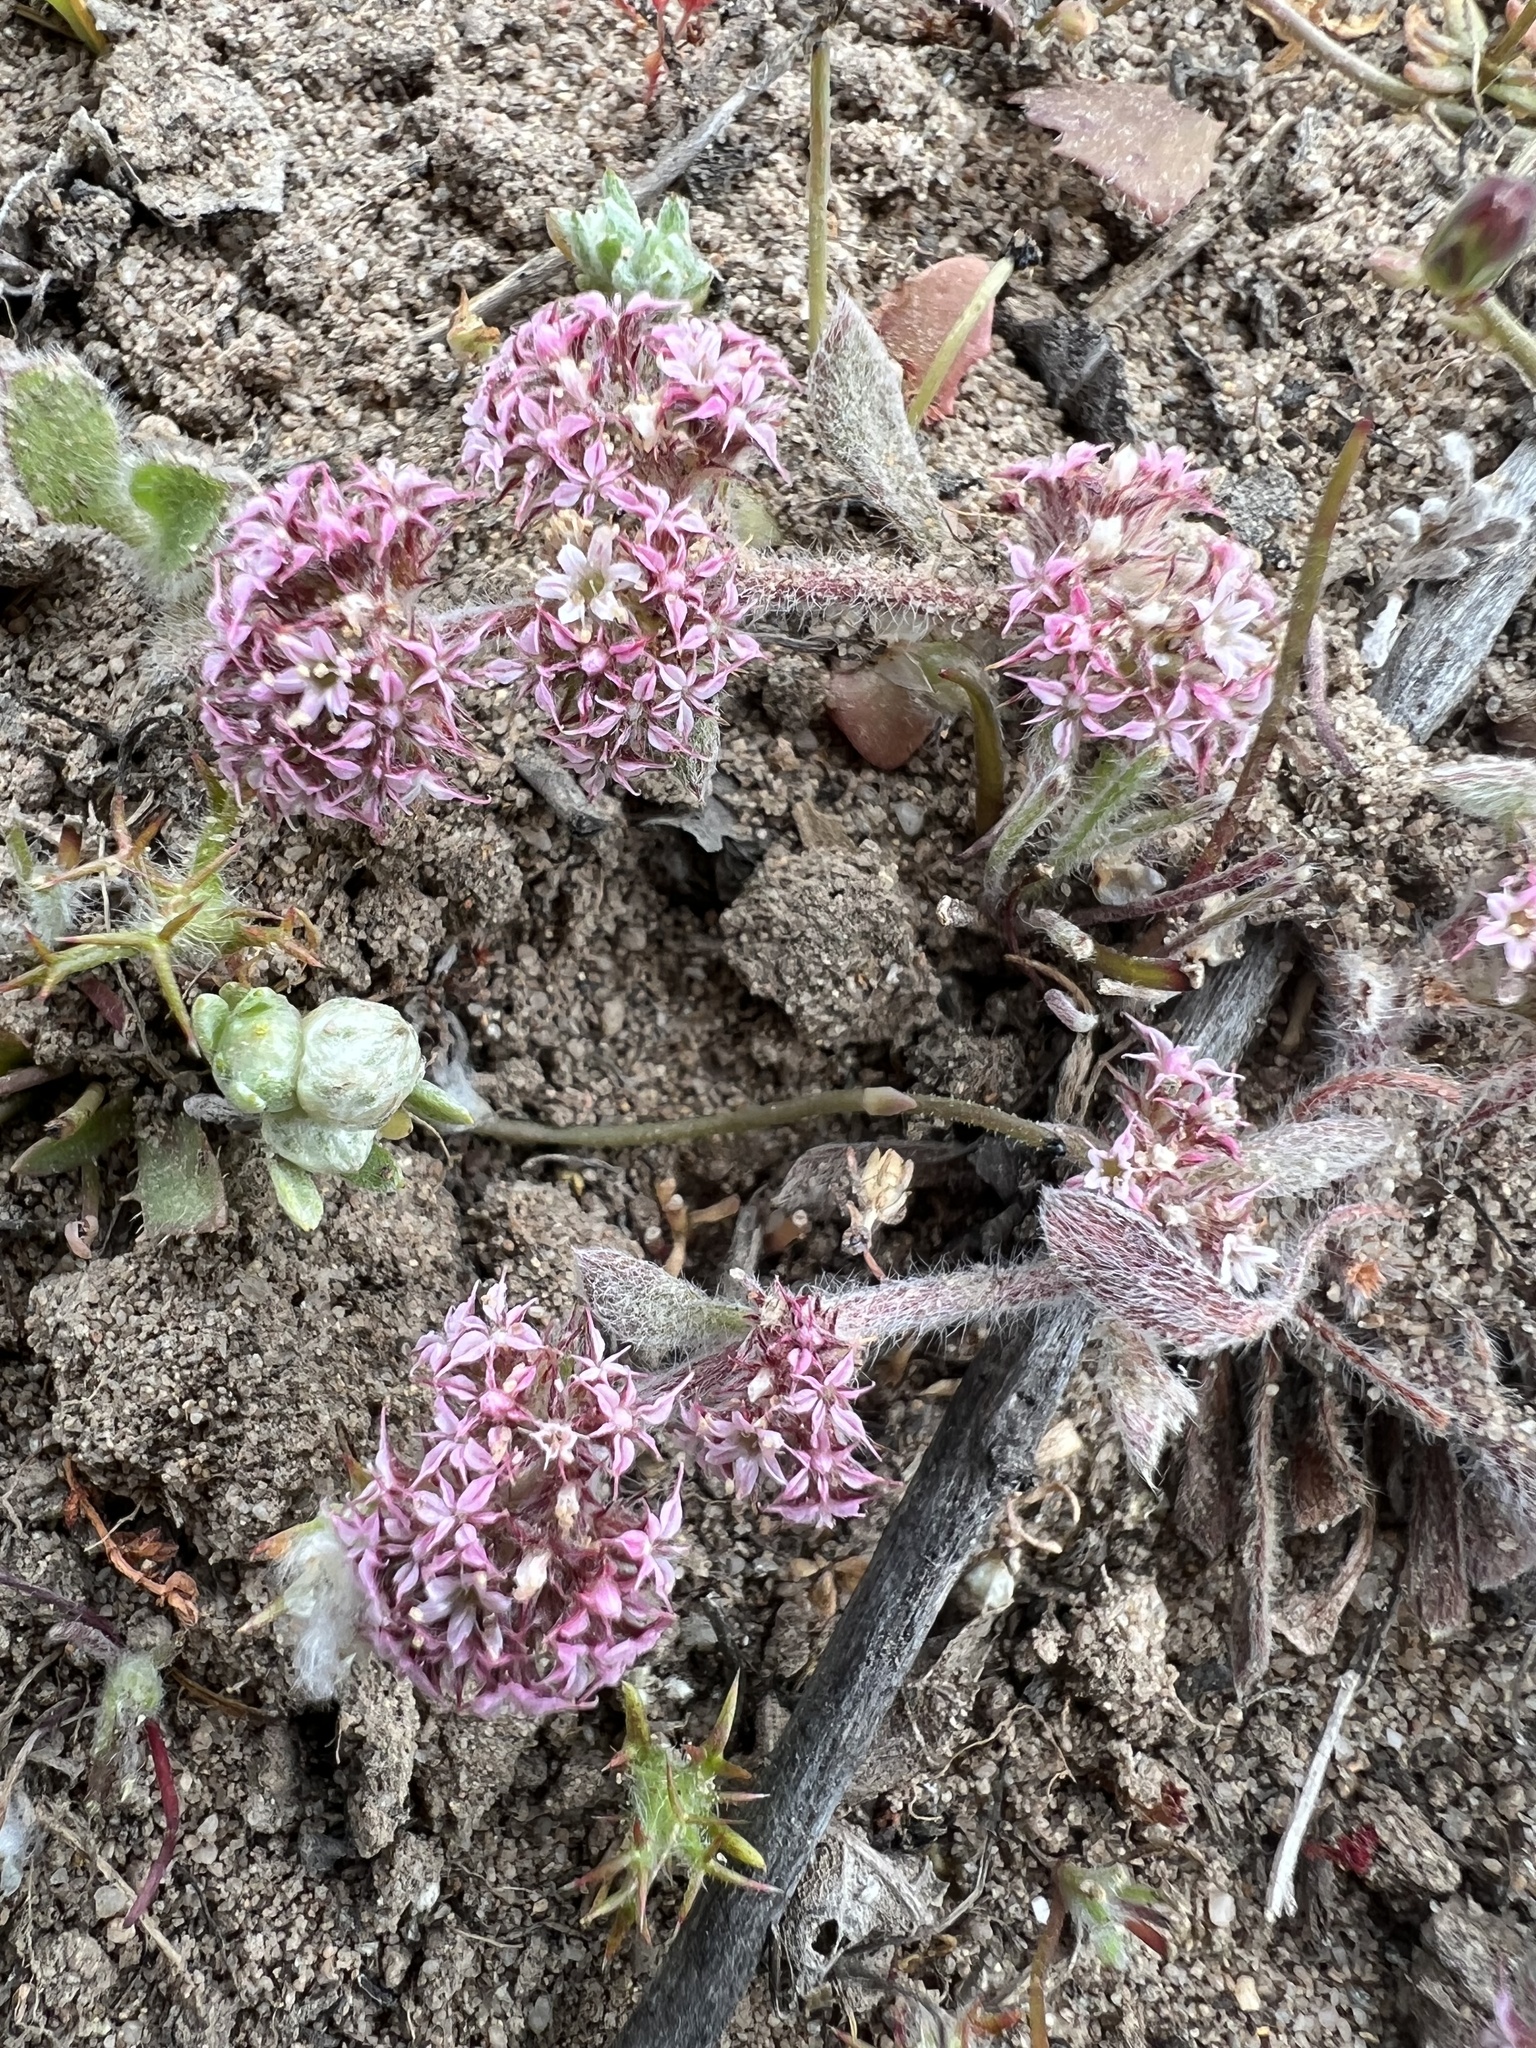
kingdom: Plantae
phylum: Tracheophyta
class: Magnoliopsida
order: Caryophyllales
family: Polygonaceae
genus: Chorizanthe
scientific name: Chorizanthe pungens
